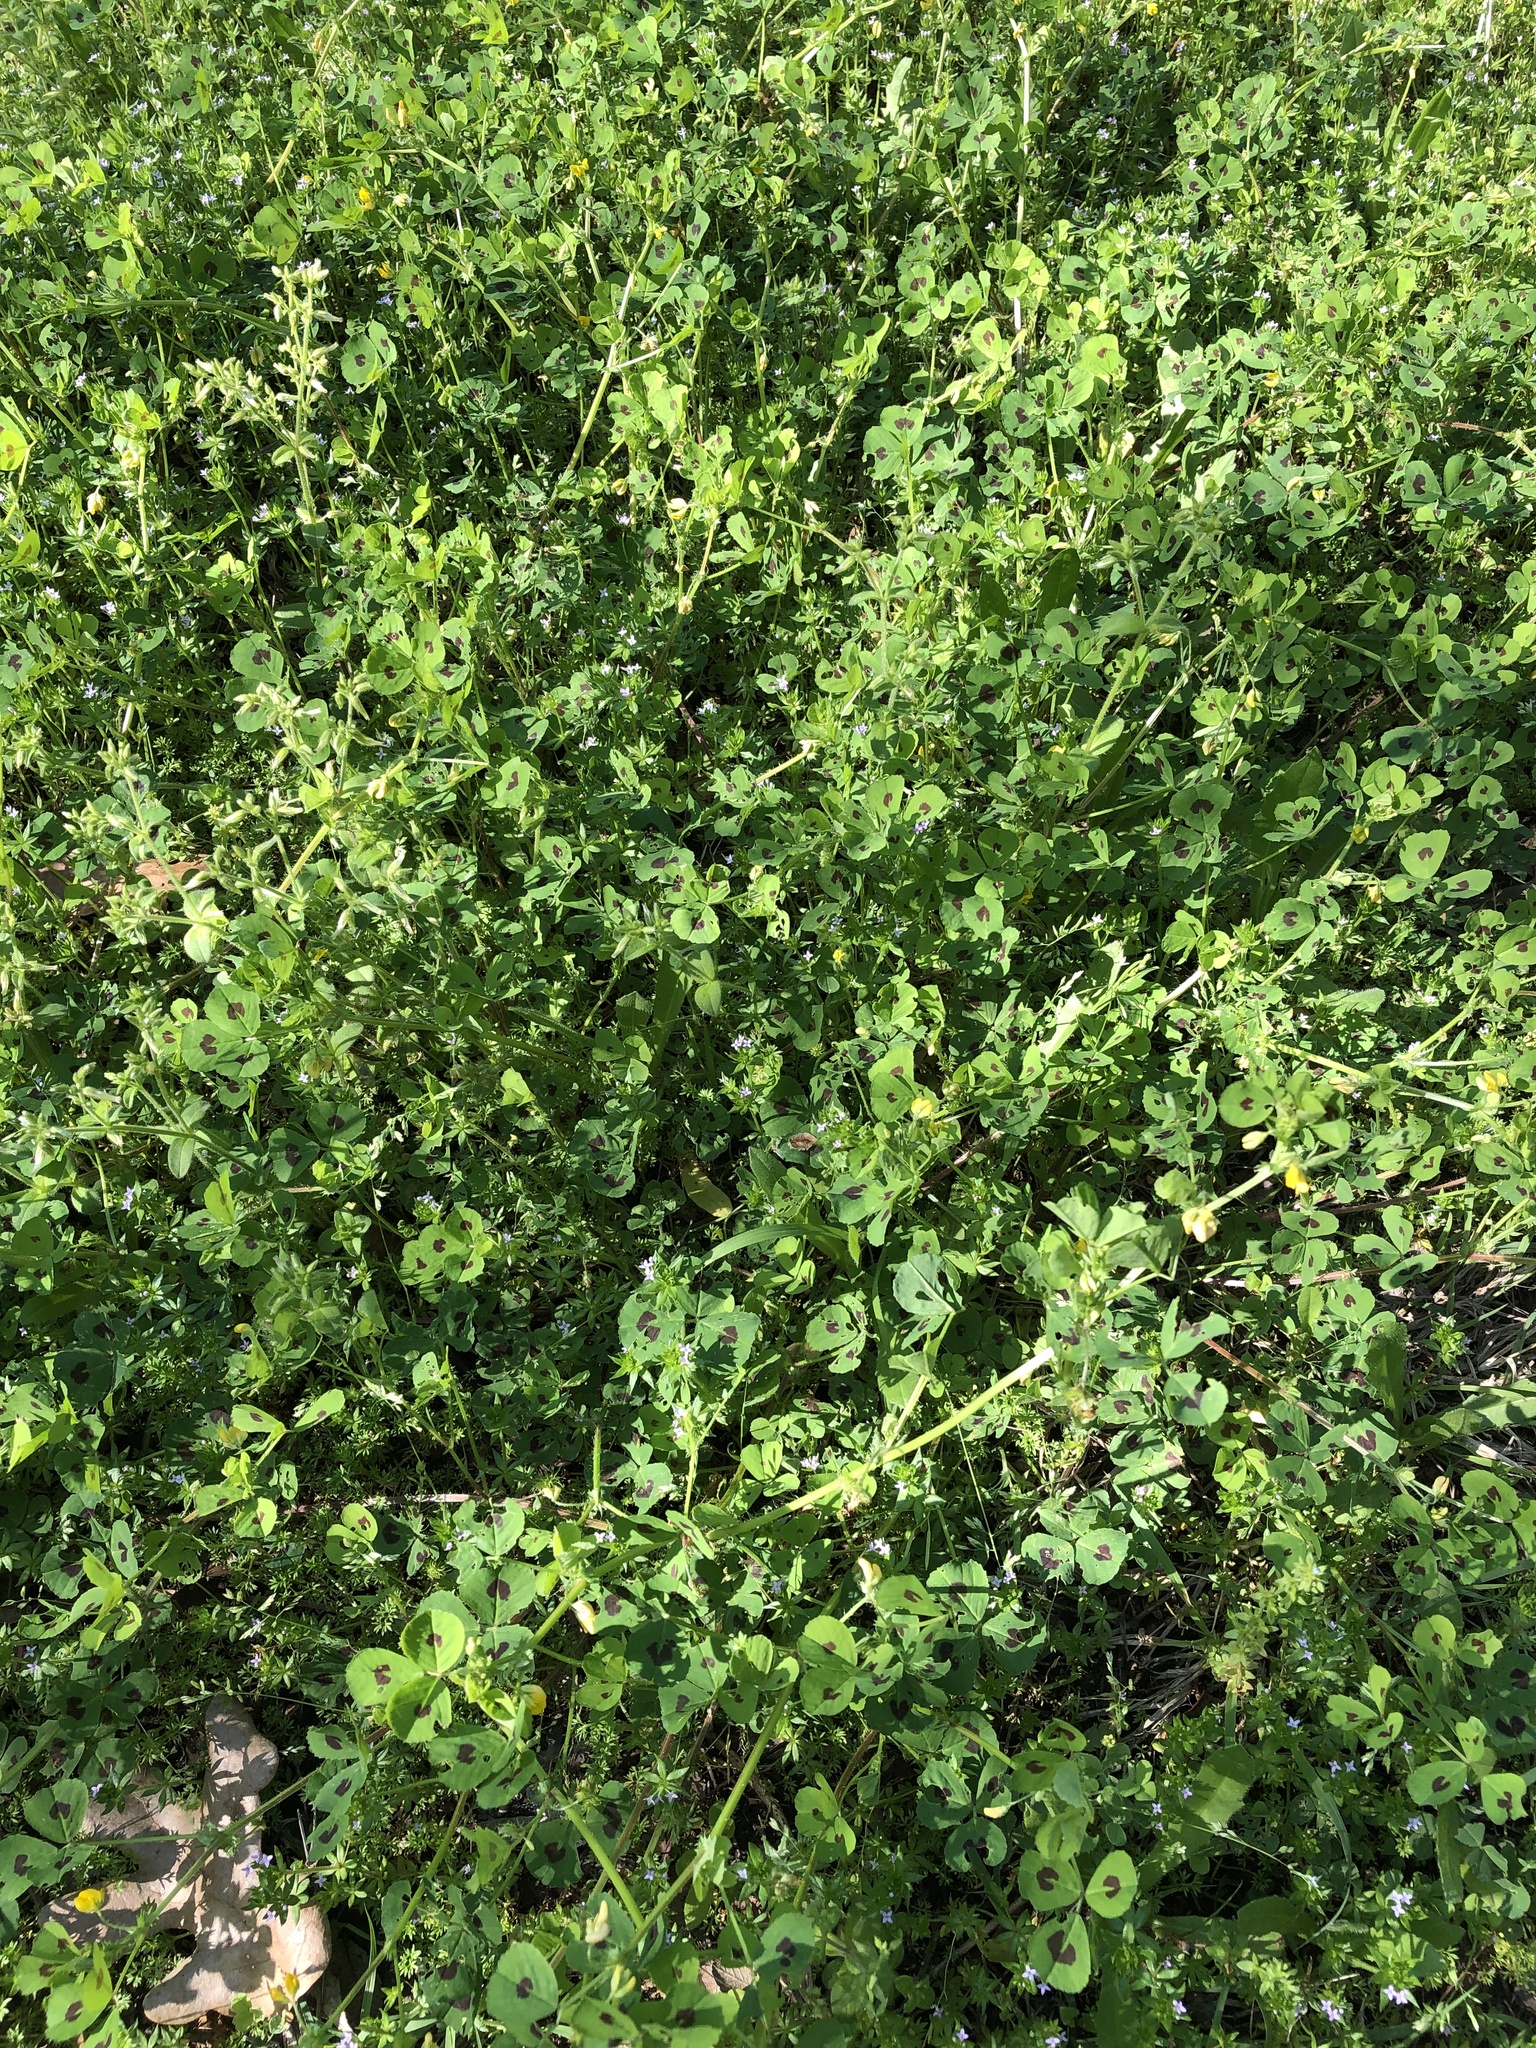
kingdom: Plantae
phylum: Tracheophyta
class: Magnoliopsida
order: Fabales
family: Fabaceae
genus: Medicago
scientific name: Medicago arabica
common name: Spotted medick
